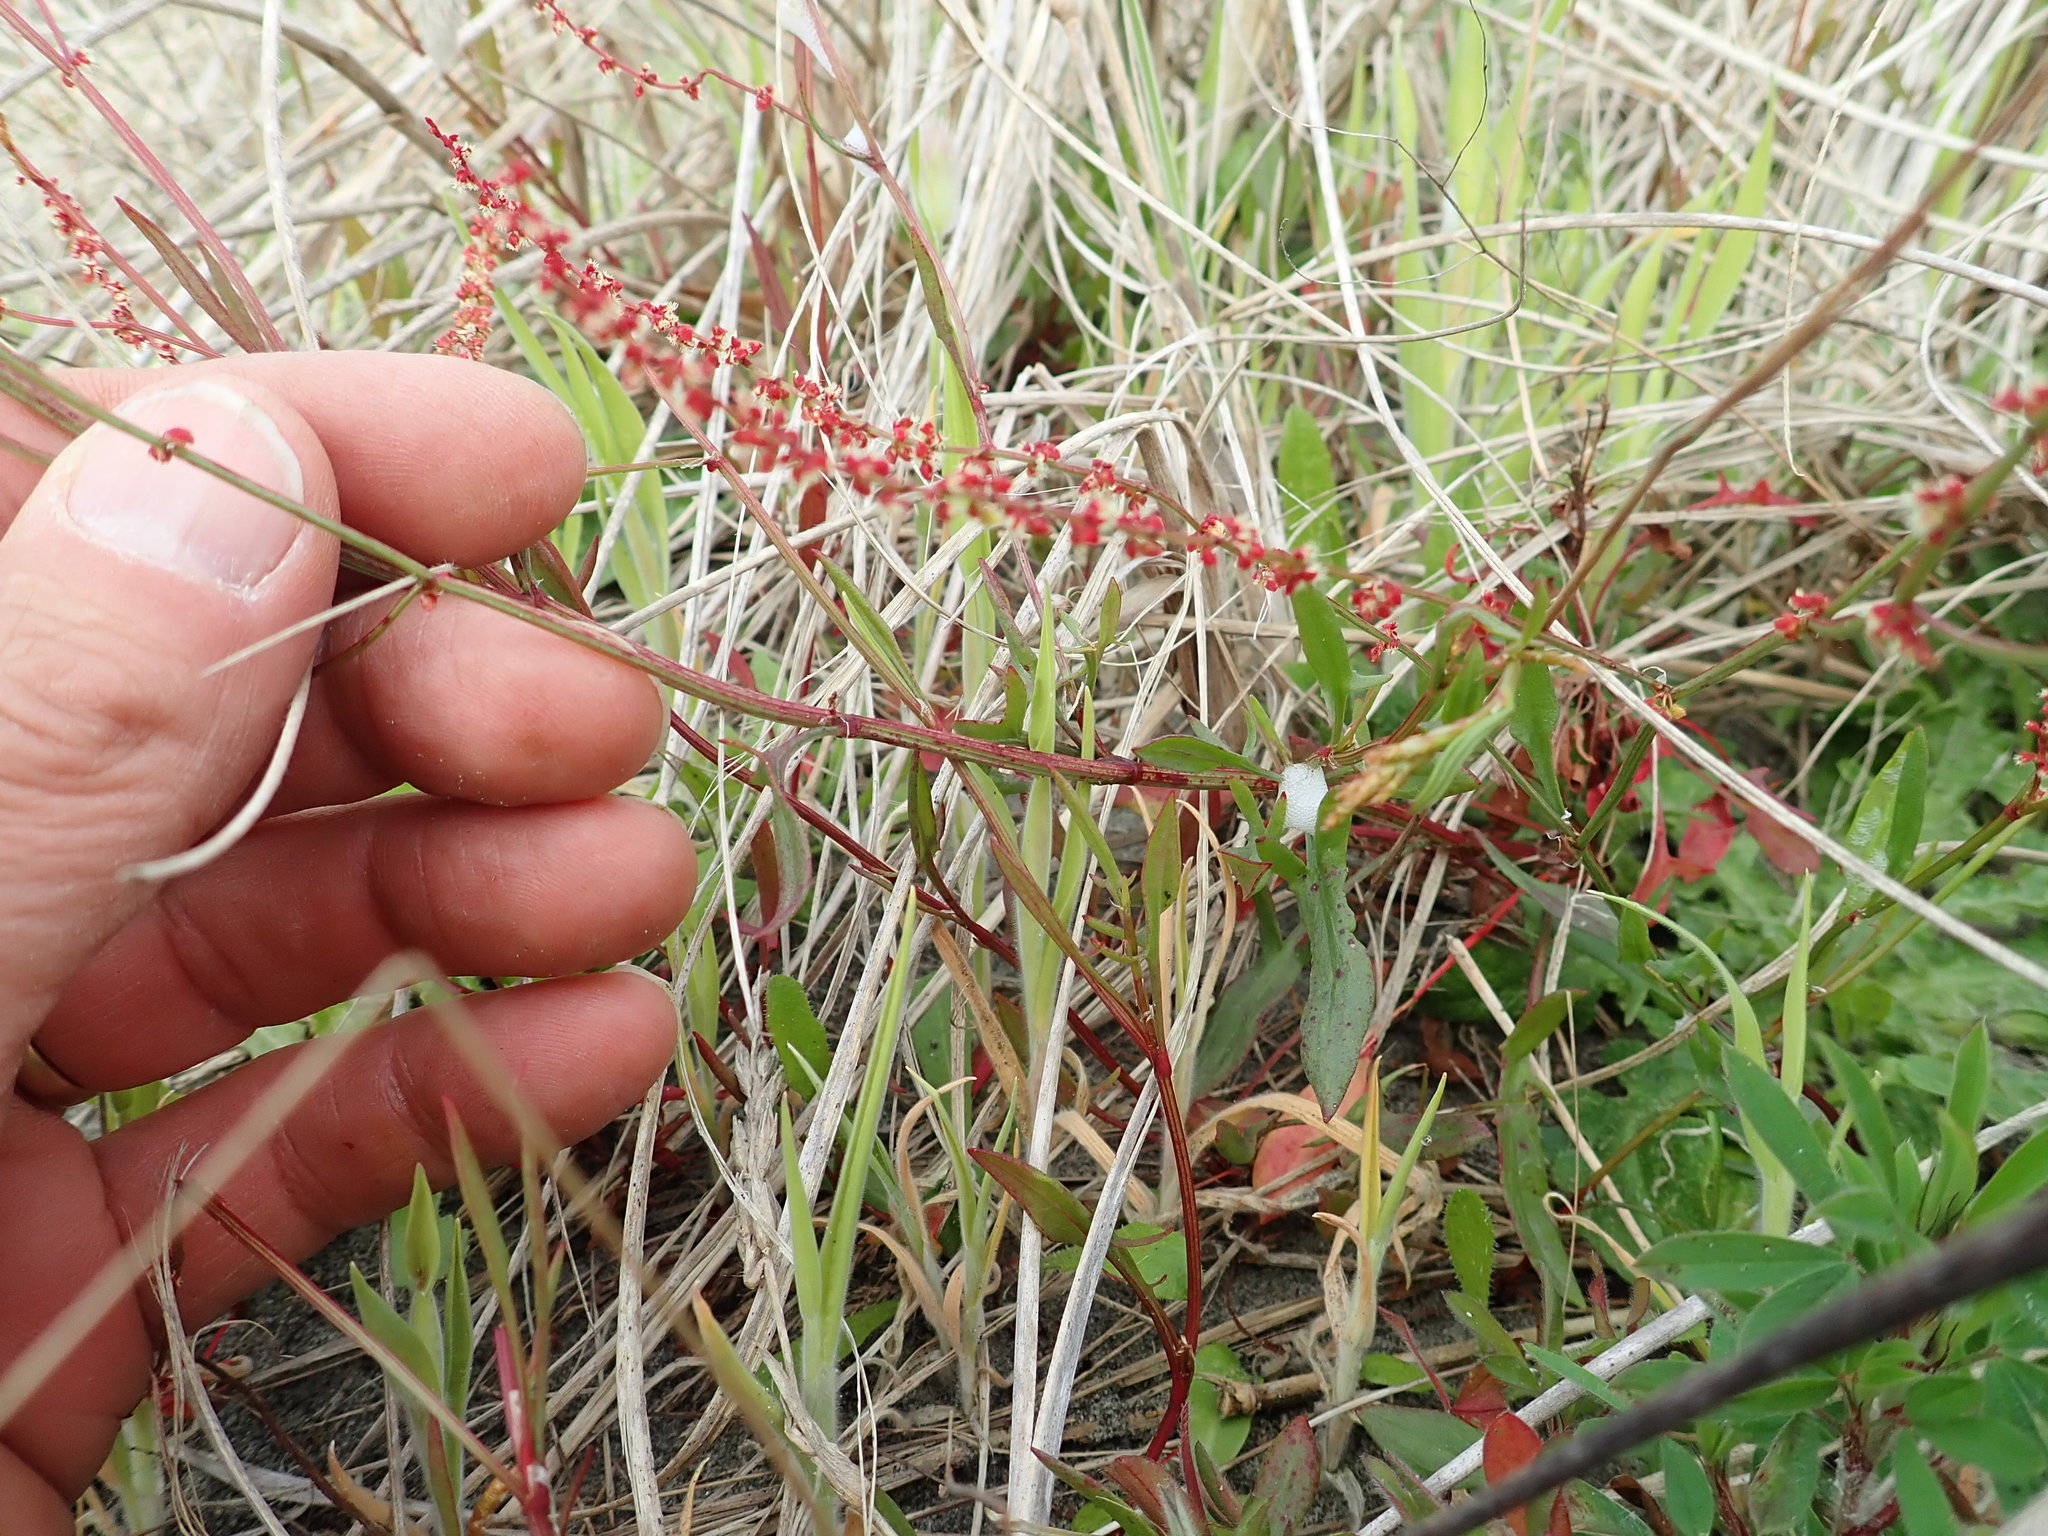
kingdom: Plantae
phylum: Tracheophyta
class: Magnoliopsida
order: Caryophyllales
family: Polygonaceae
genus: Rumex
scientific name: Rumex acetosella
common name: Common sheep sorrel
